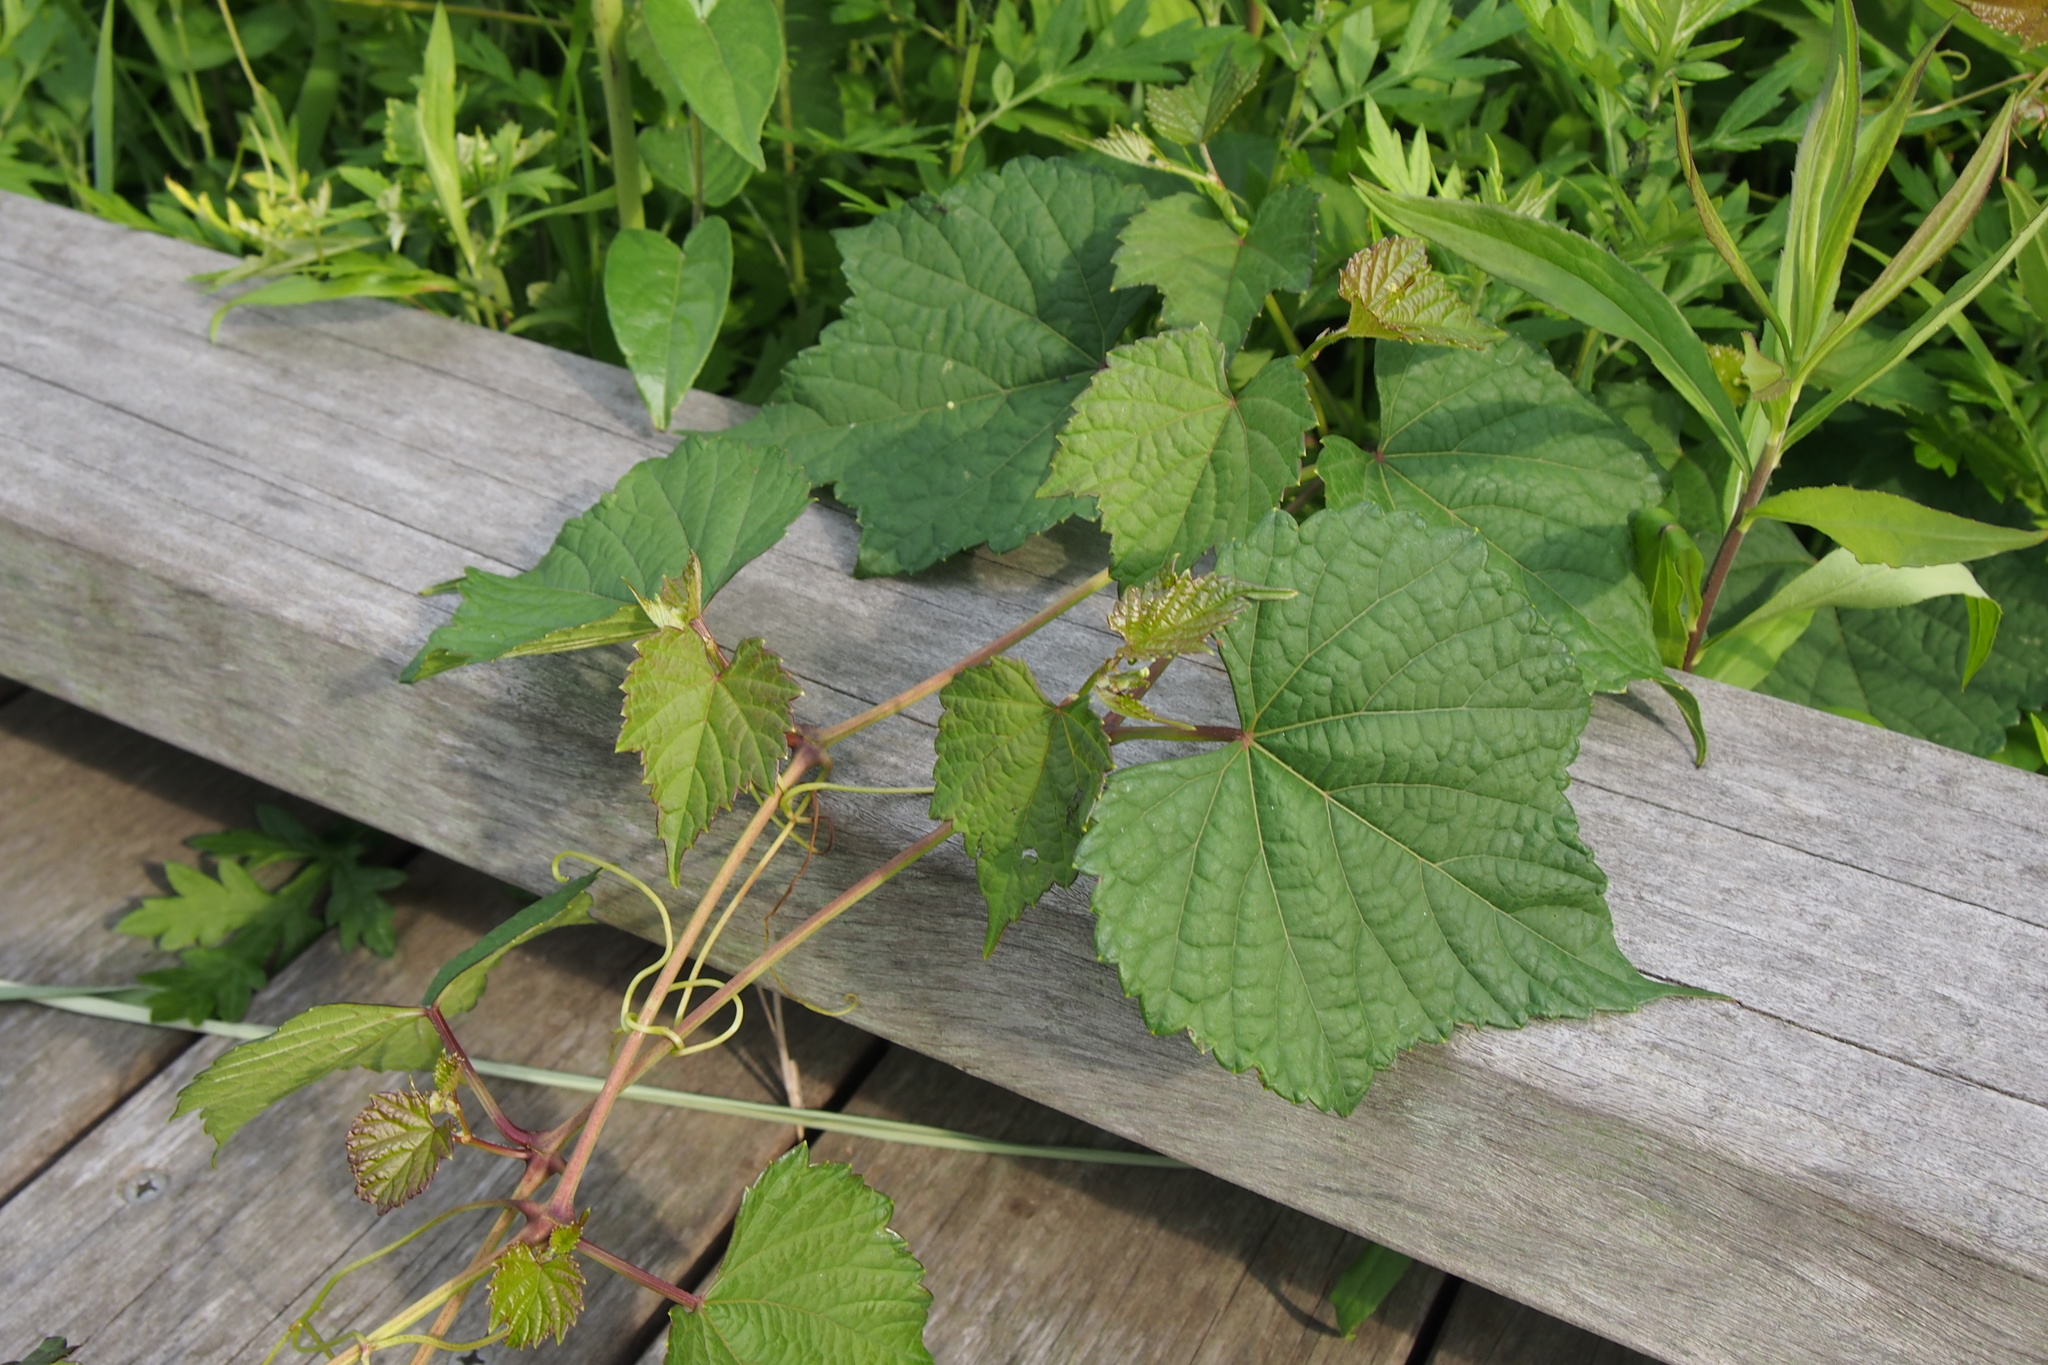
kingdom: Plantae
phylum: Tracheophyta
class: Magnoliopsida
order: Vitales
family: Vitaceae
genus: Ampelopsis
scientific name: Ampelopsis glandulosa
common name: Amur peppervine
